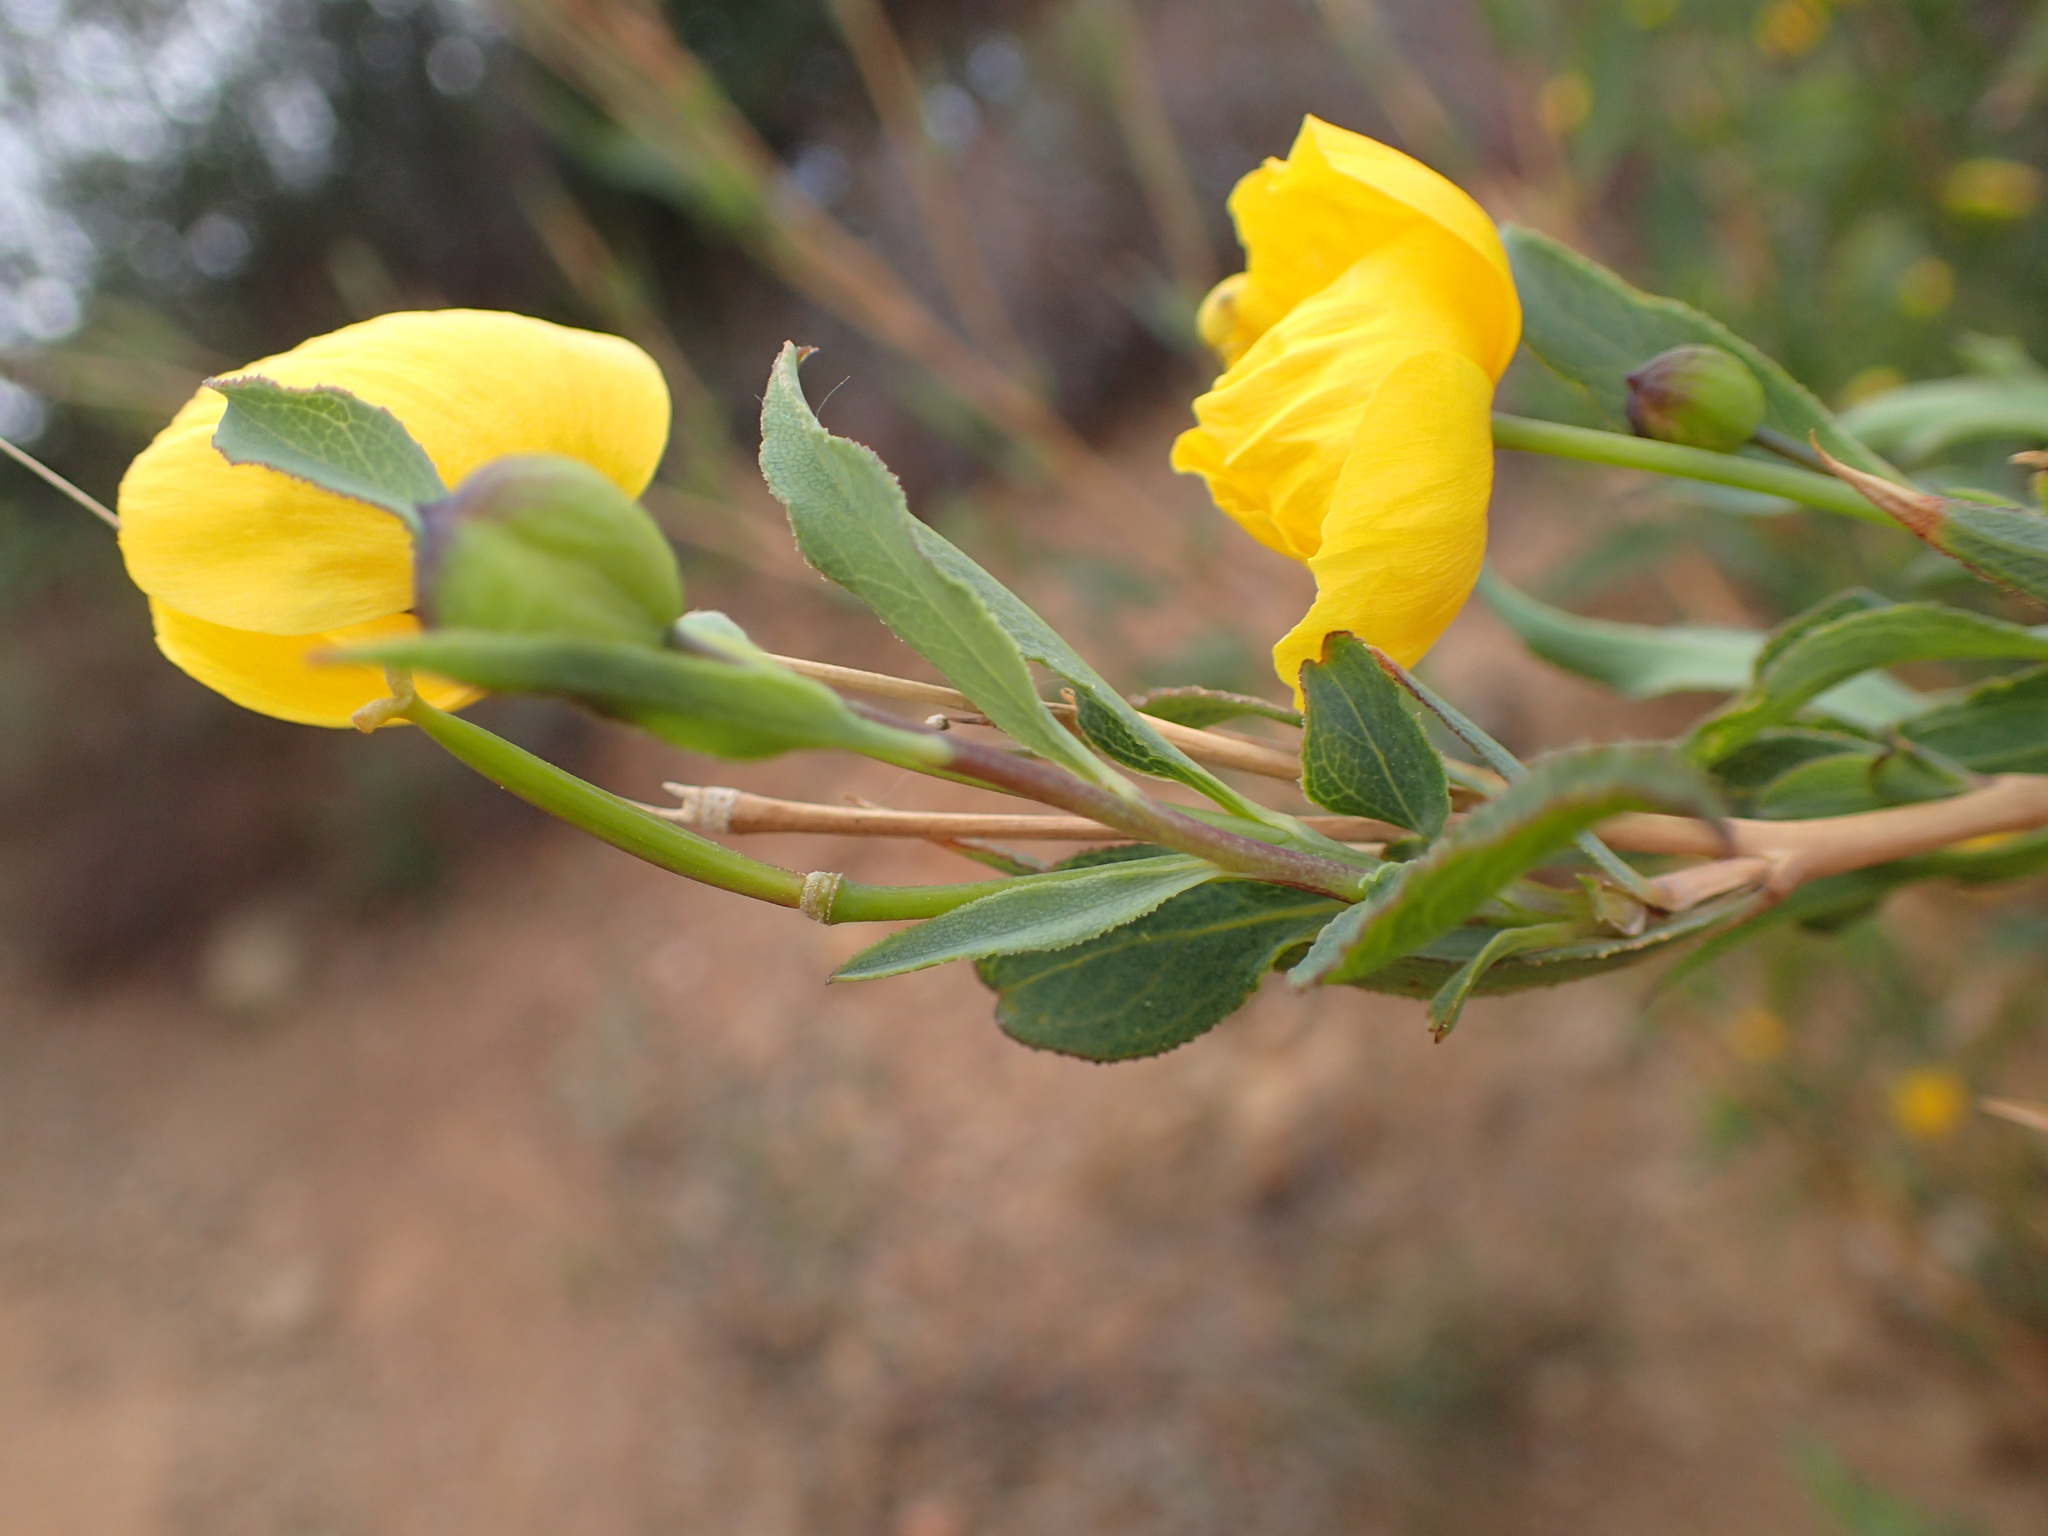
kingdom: Plantae
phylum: Tracheophyta
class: Magnoliopsida
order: Ranunculales
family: Papaveraceae
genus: Dendromecon
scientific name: Dendromecon rigida
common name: Tree poppy
